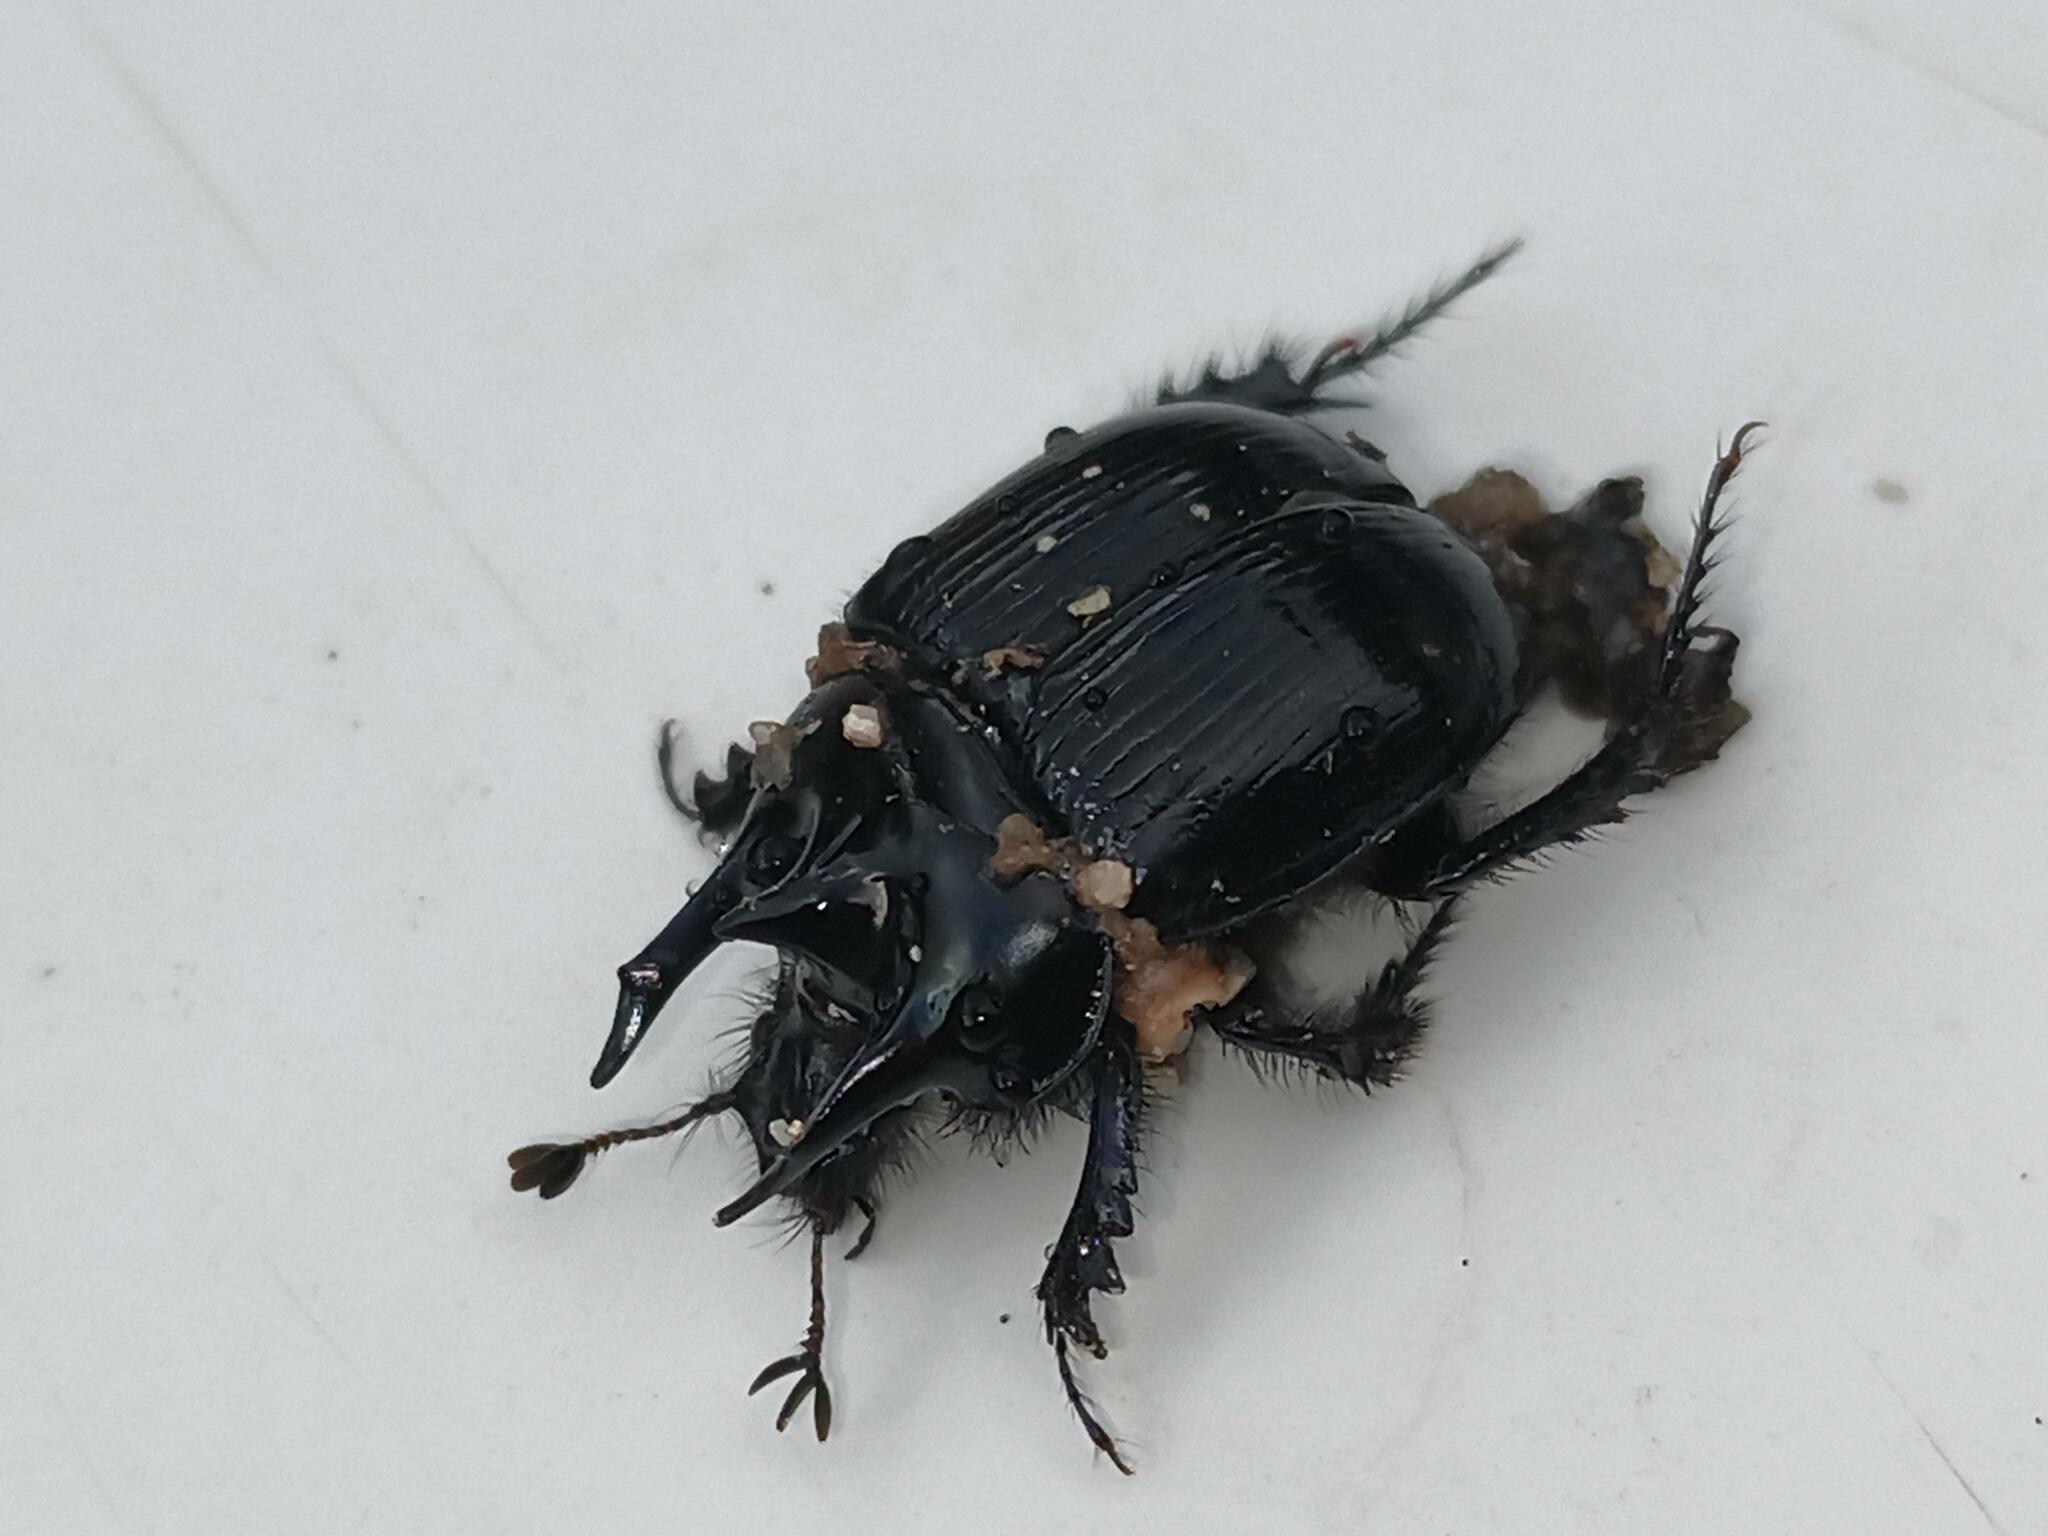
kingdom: Animalia
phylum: Arthropoda
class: Insecta
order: Coleoptera
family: Geotrupidae
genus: Typhaeus
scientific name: Typhaeus typhoeus
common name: Minotaur beetle
